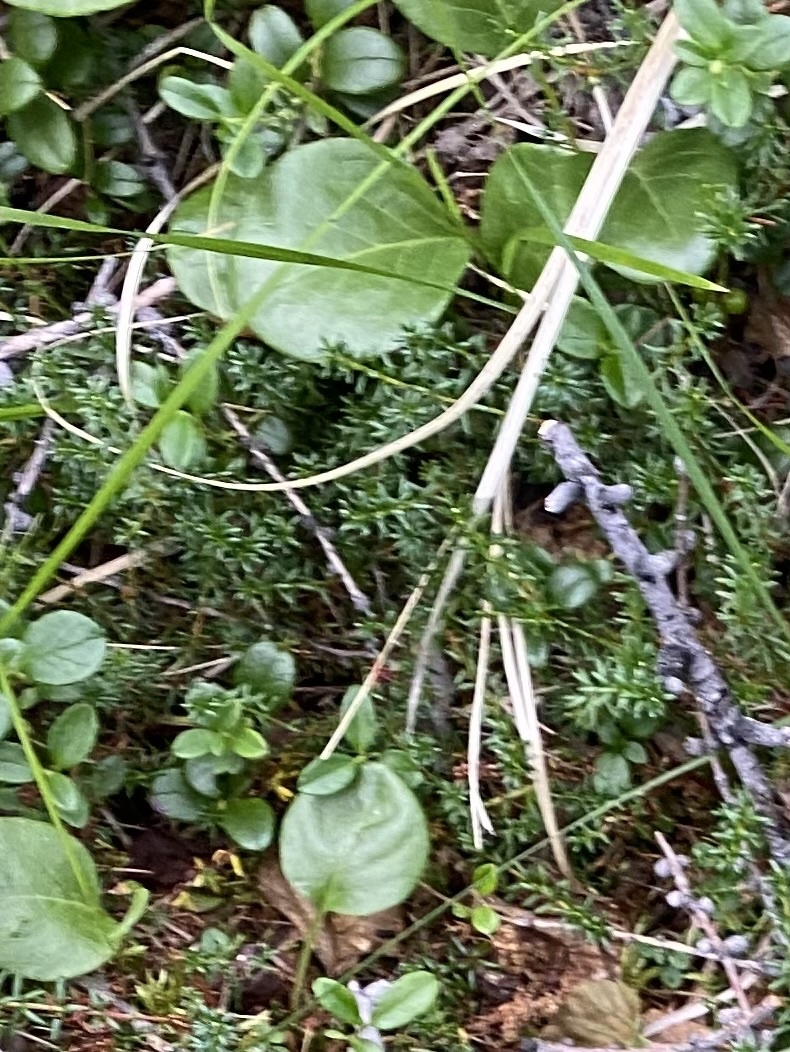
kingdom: Plantae
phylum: Tracheophyta
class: Magnoliopsida
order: Ericales
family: Ericaceae
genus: Empetrum
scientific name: Empetrum nigrum
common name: Black crowberry
